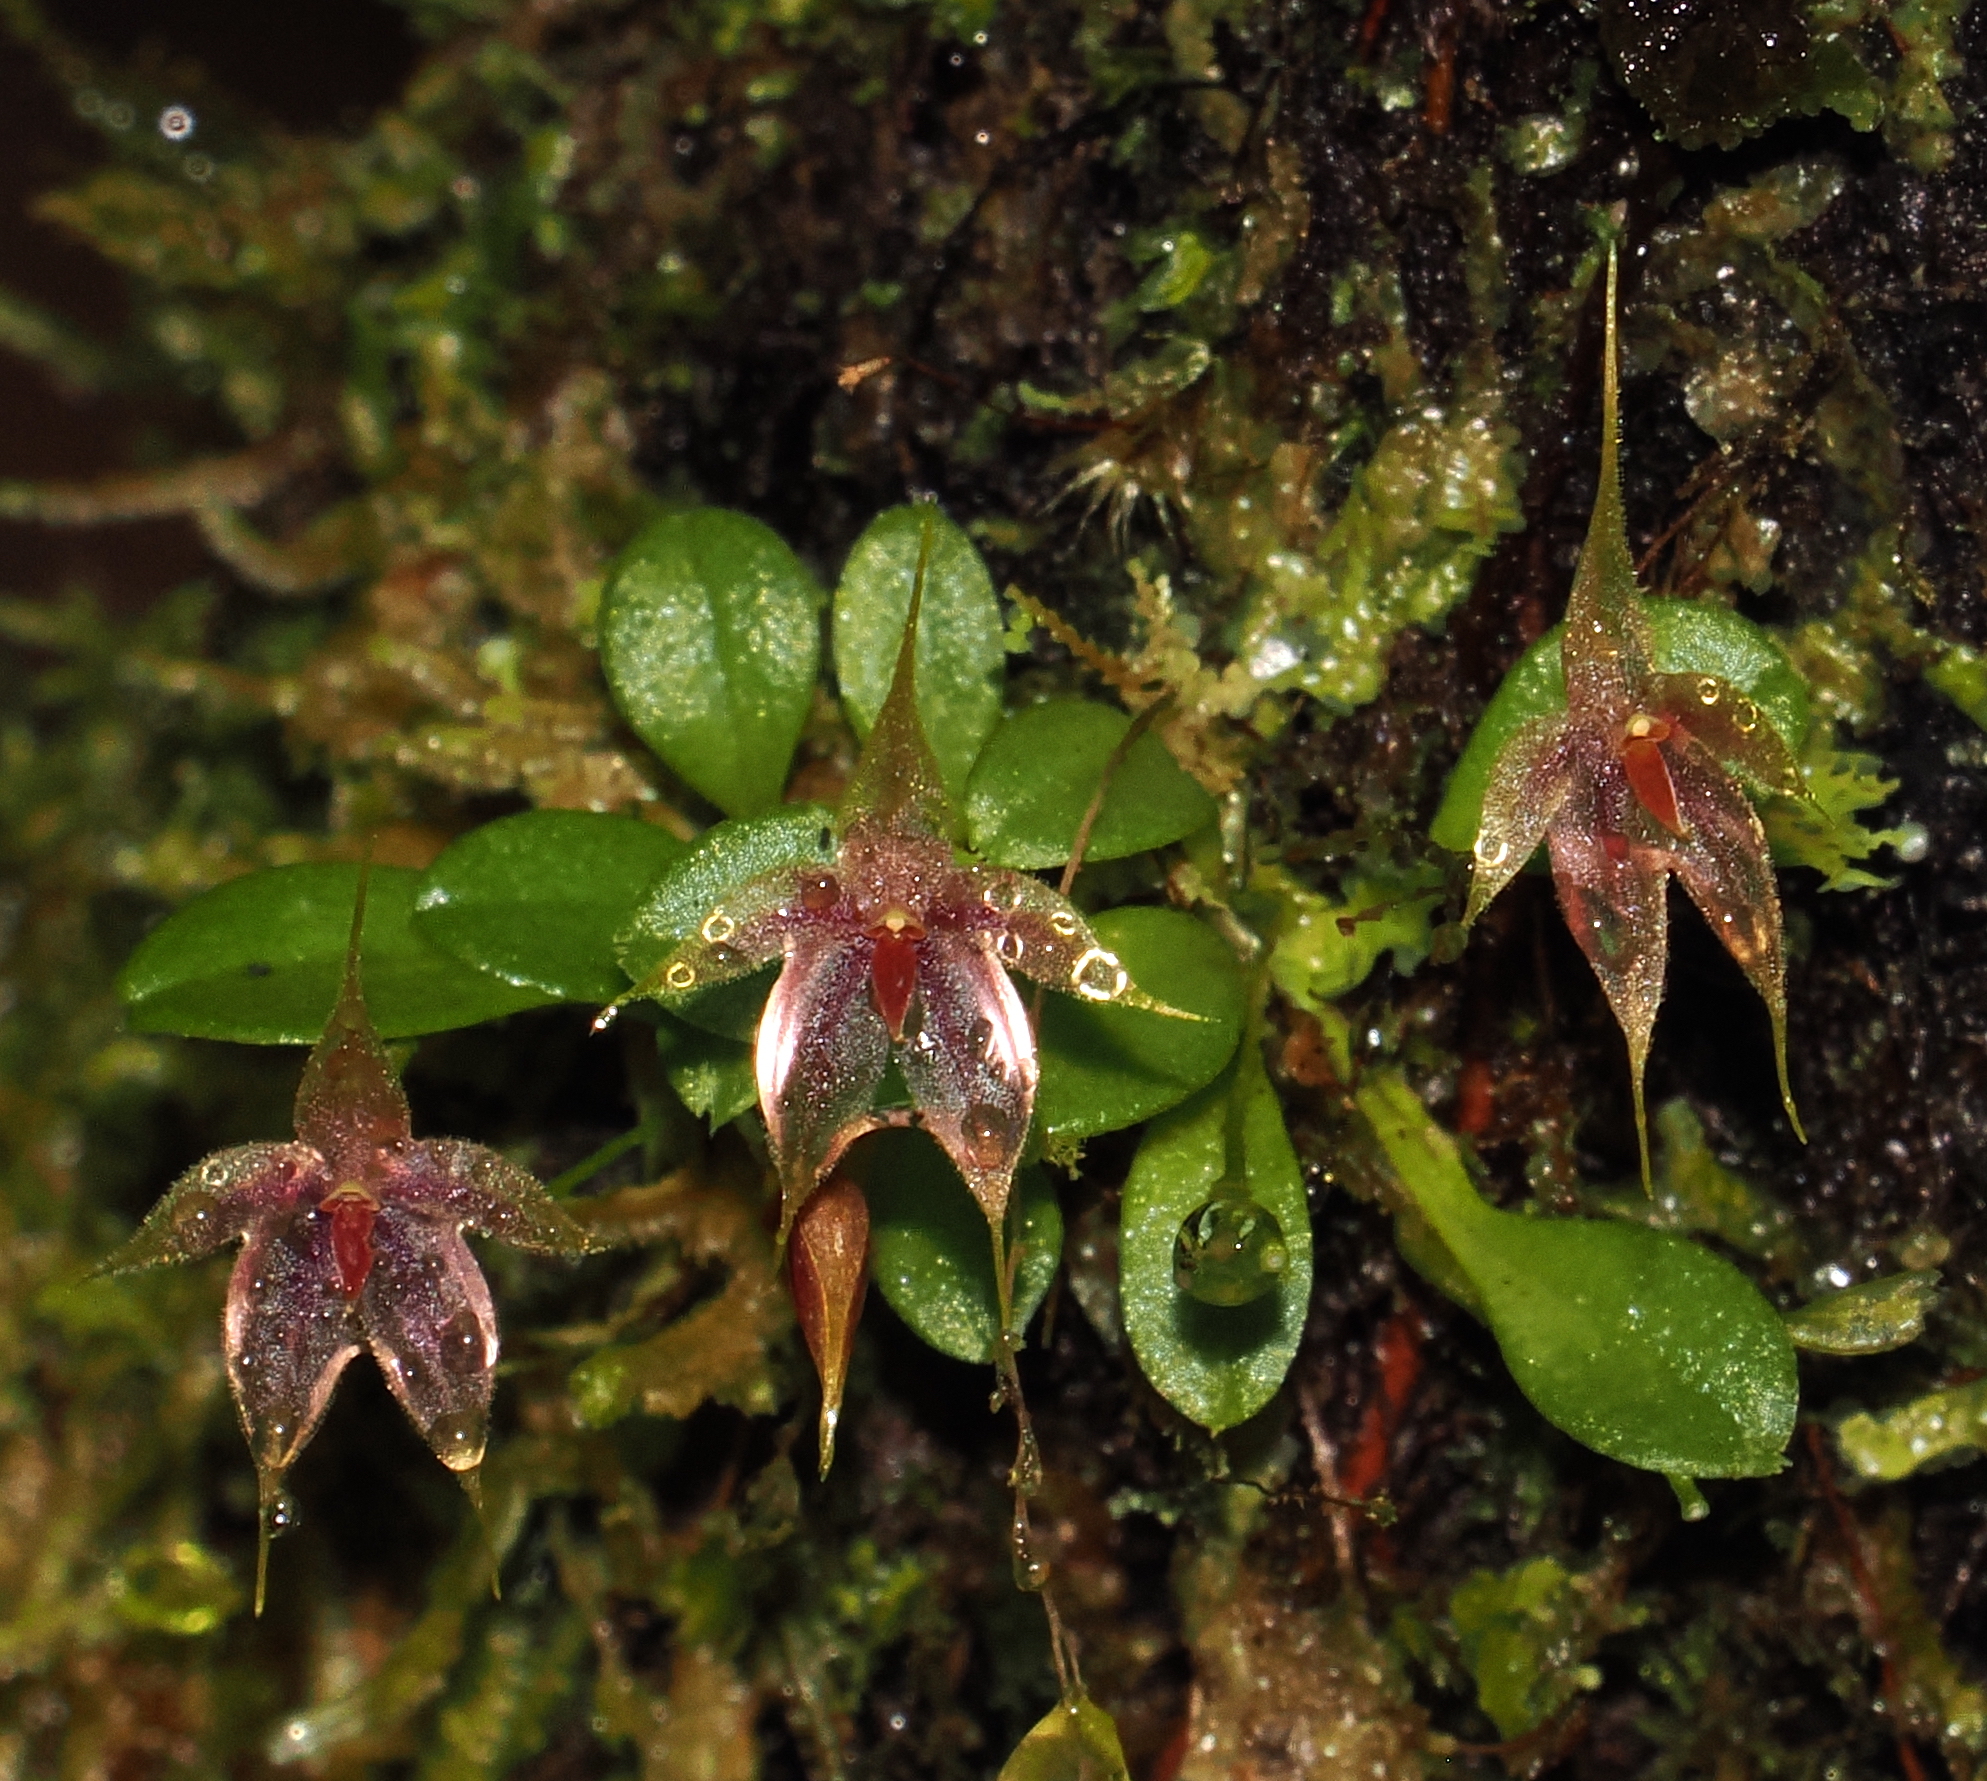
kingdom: Plantae
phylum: Tracheophyta
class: Liliopsida
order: Asparagales
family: Orchidaceae
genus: Platystele
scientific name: Platystele posadarum
